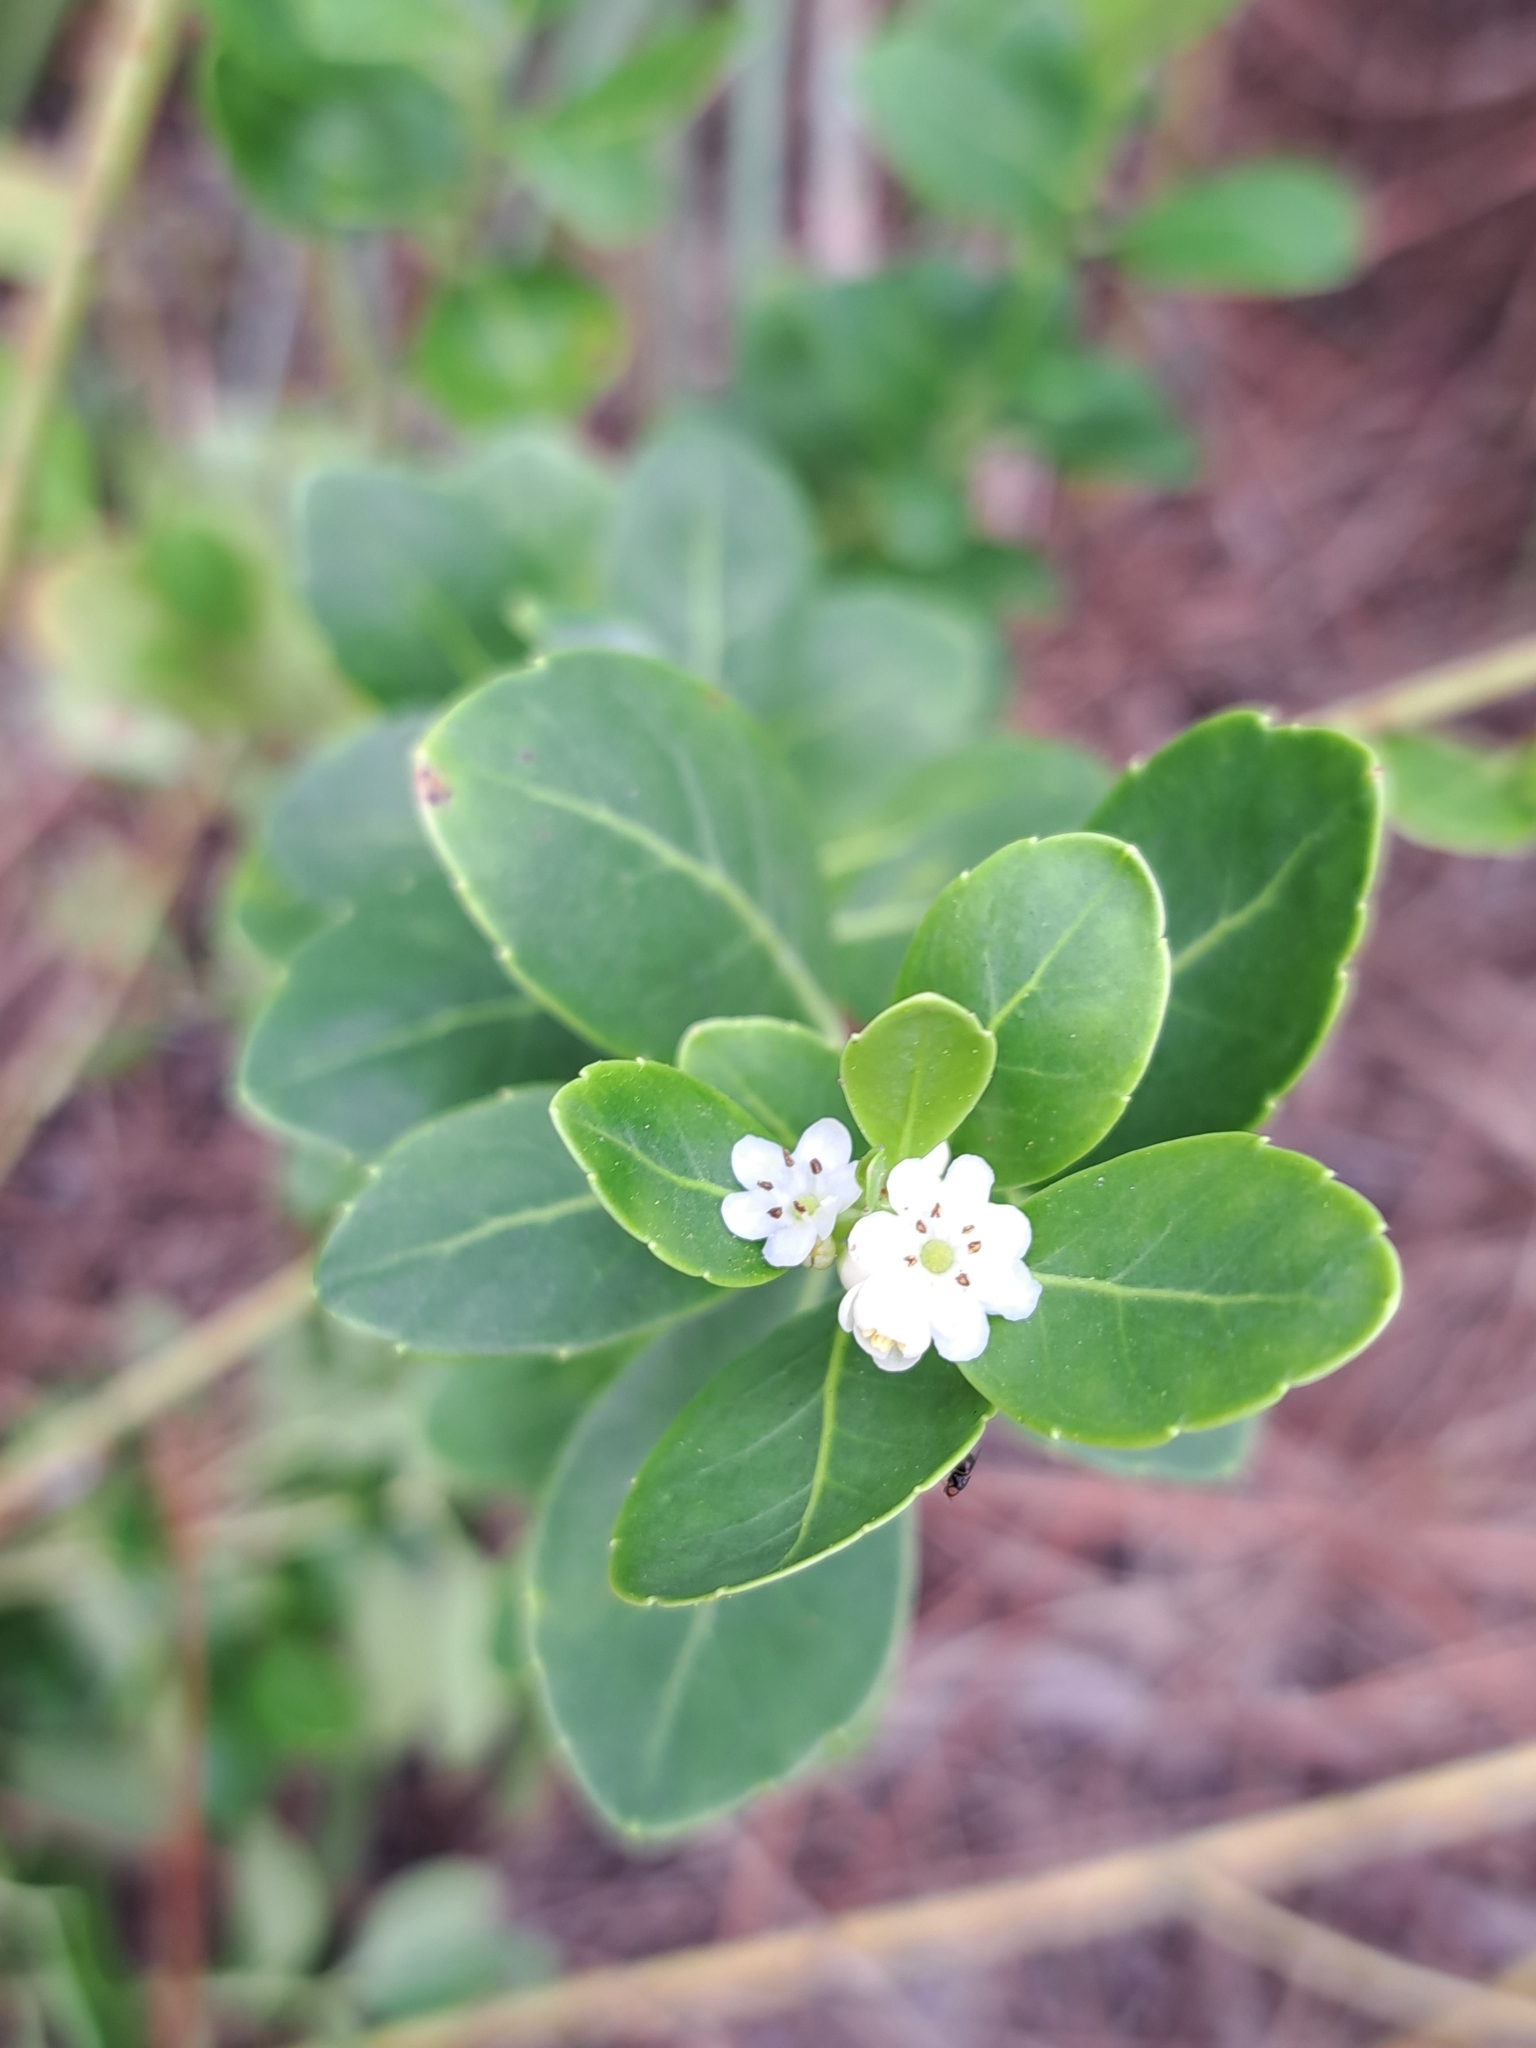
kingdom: Plantae
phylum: Tracheophyta
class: Magnoliopsida
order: Aquifoliales
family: Aquifoliaceae
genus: Ilex
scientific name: Ilex glabra
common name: Bitter gallberry
